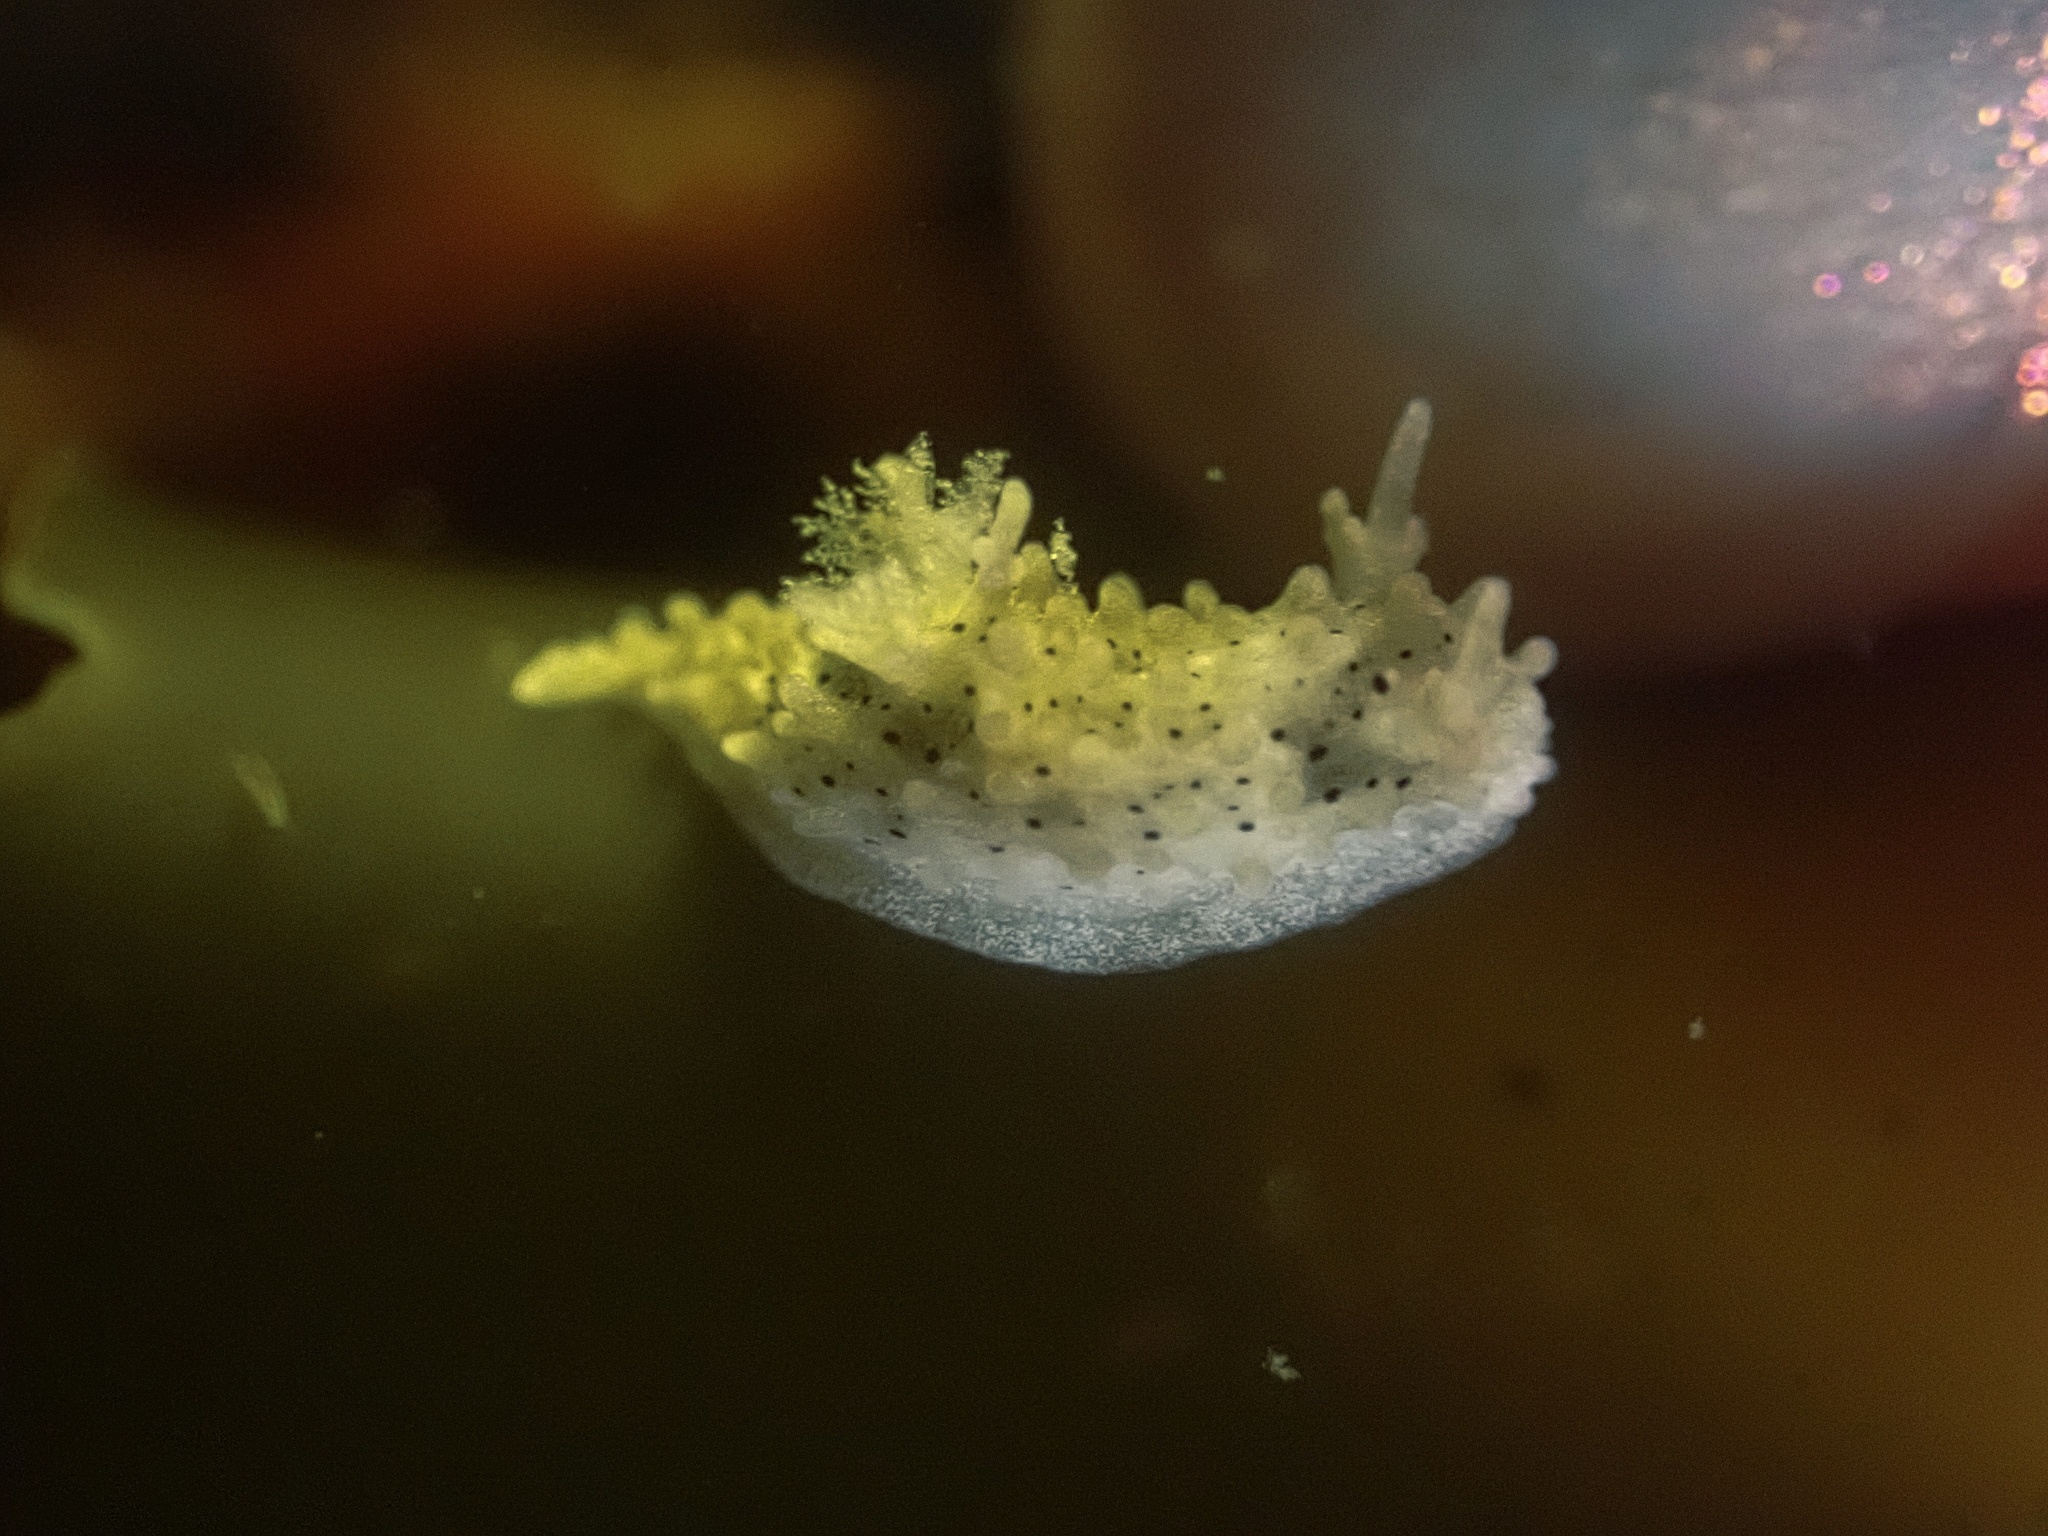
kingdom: Animalia
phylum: Mollusca
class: Gastropoda
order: Nudibranchia
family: Aegiridae
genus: Aegires
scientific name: Aegires albopunctatus
